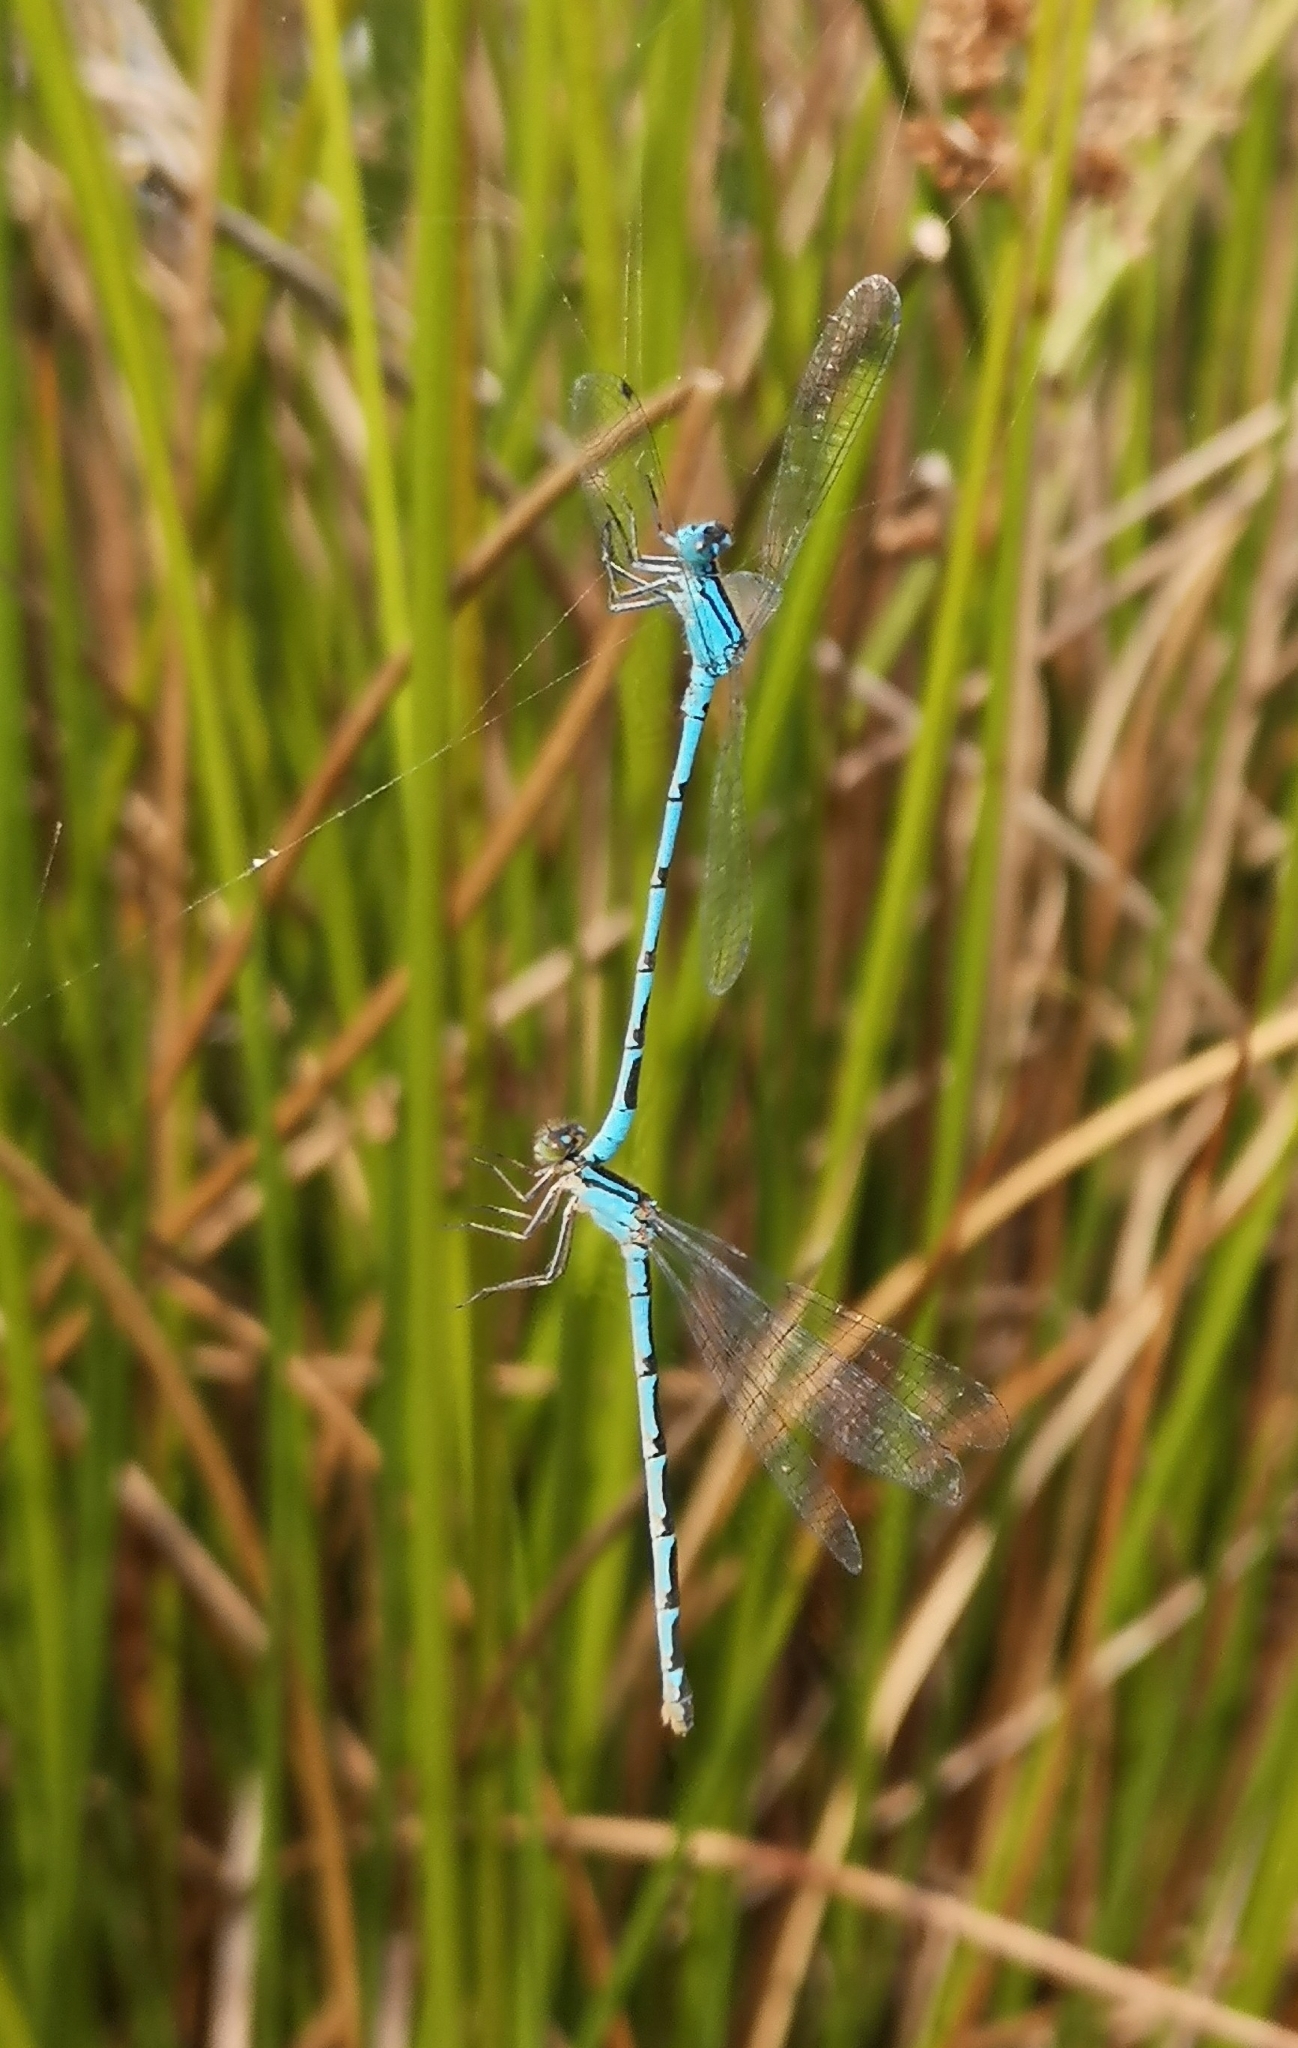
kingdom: Animalia
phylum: Arthropoda
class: Insecta
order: Odonata
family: Coenagrionidae
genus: Enallagma
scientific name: Enallagma cyathigerum
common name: Common blue damselfly
